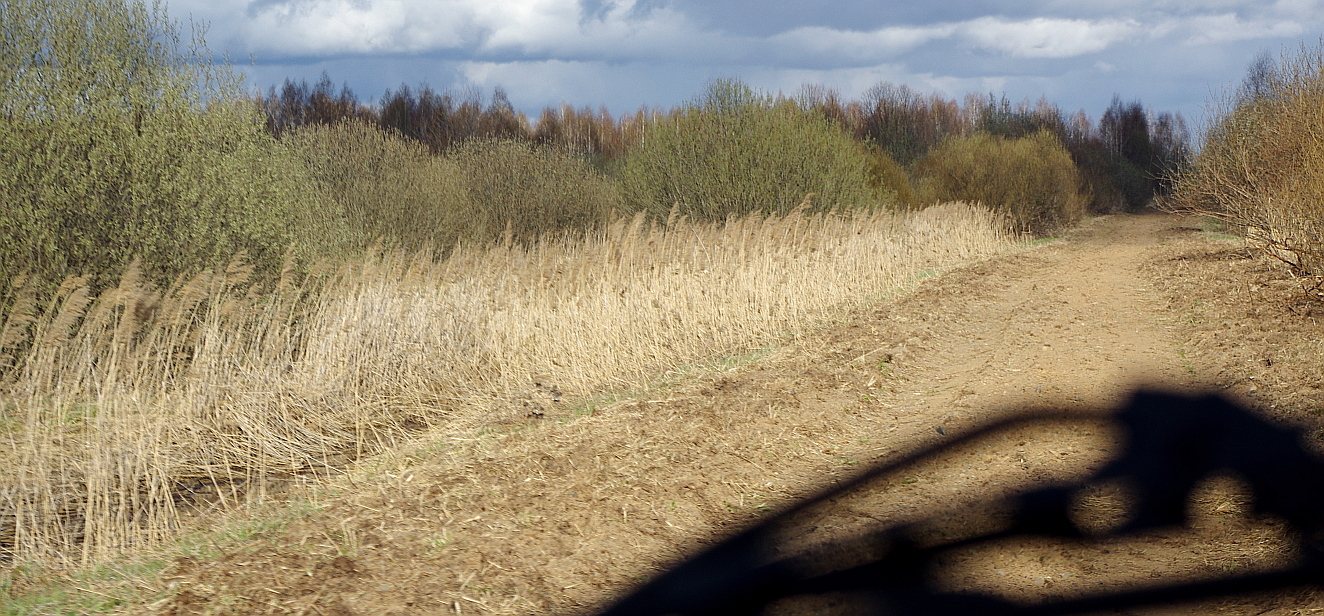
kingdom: Plantae
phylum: Tracheophyta
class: Liliopsida
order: Poales
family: Poaceae
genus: Phragmites
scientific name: Phragmites australis
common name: Common reed
